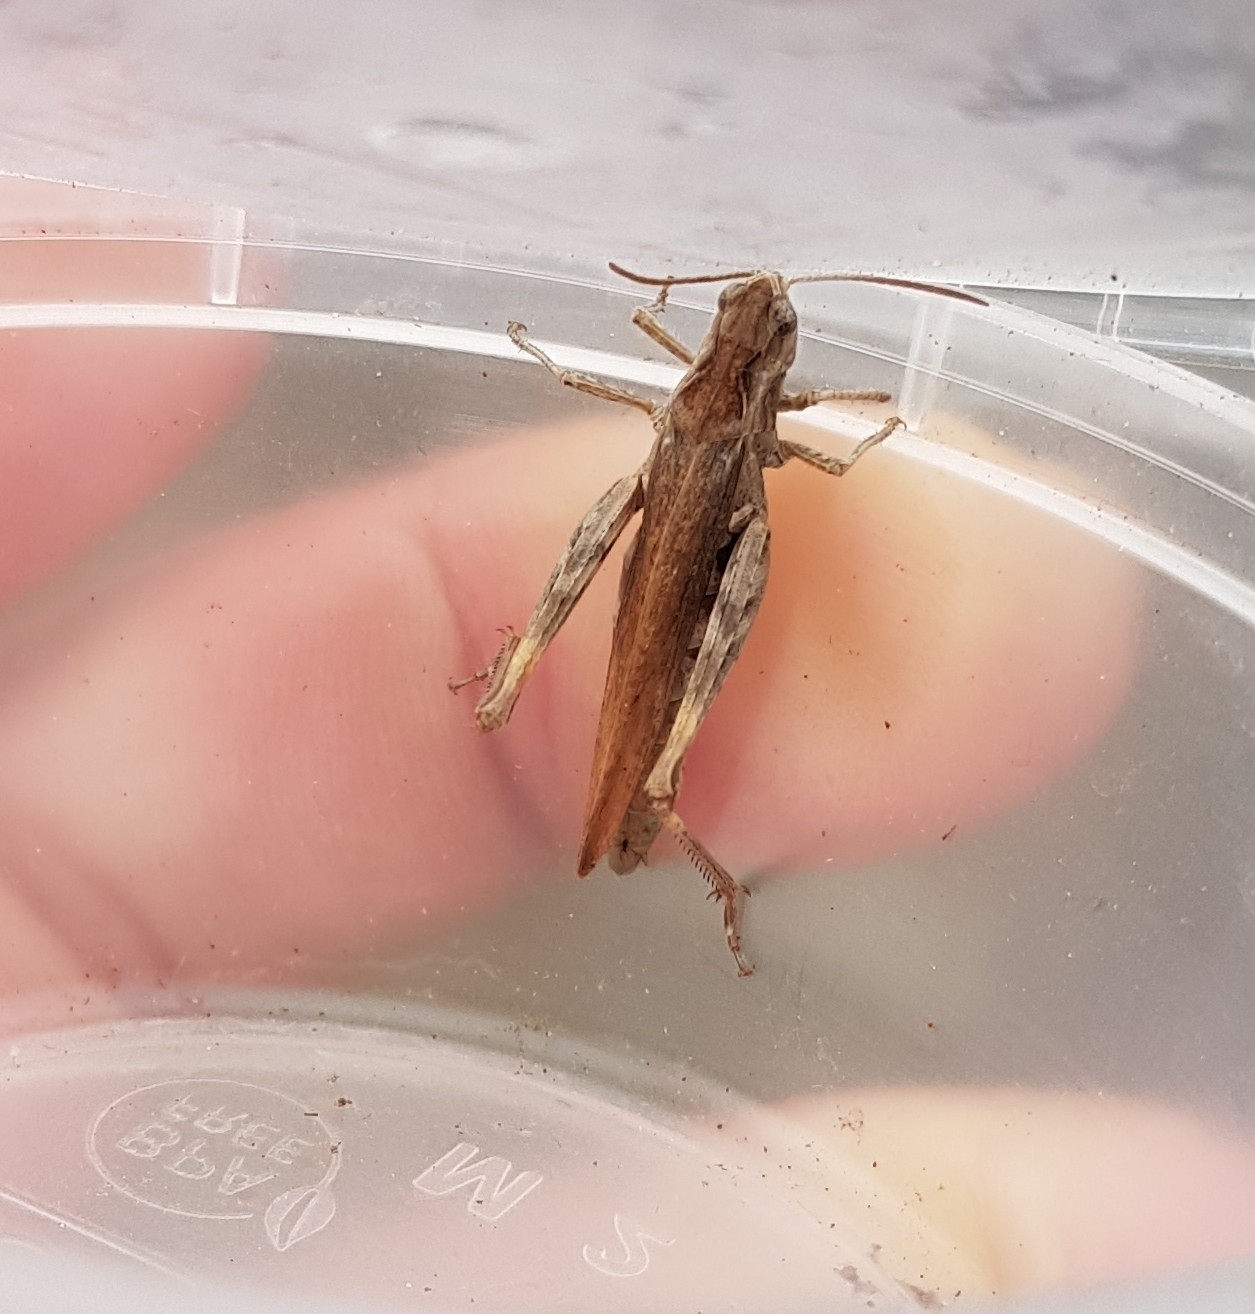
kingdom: Animalia
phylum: Arthropoda
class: Insecta
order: Orthoptera
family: Acrididae
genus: Chorthippus
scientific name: Chorthippus brunneus
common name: Field grasshopper
